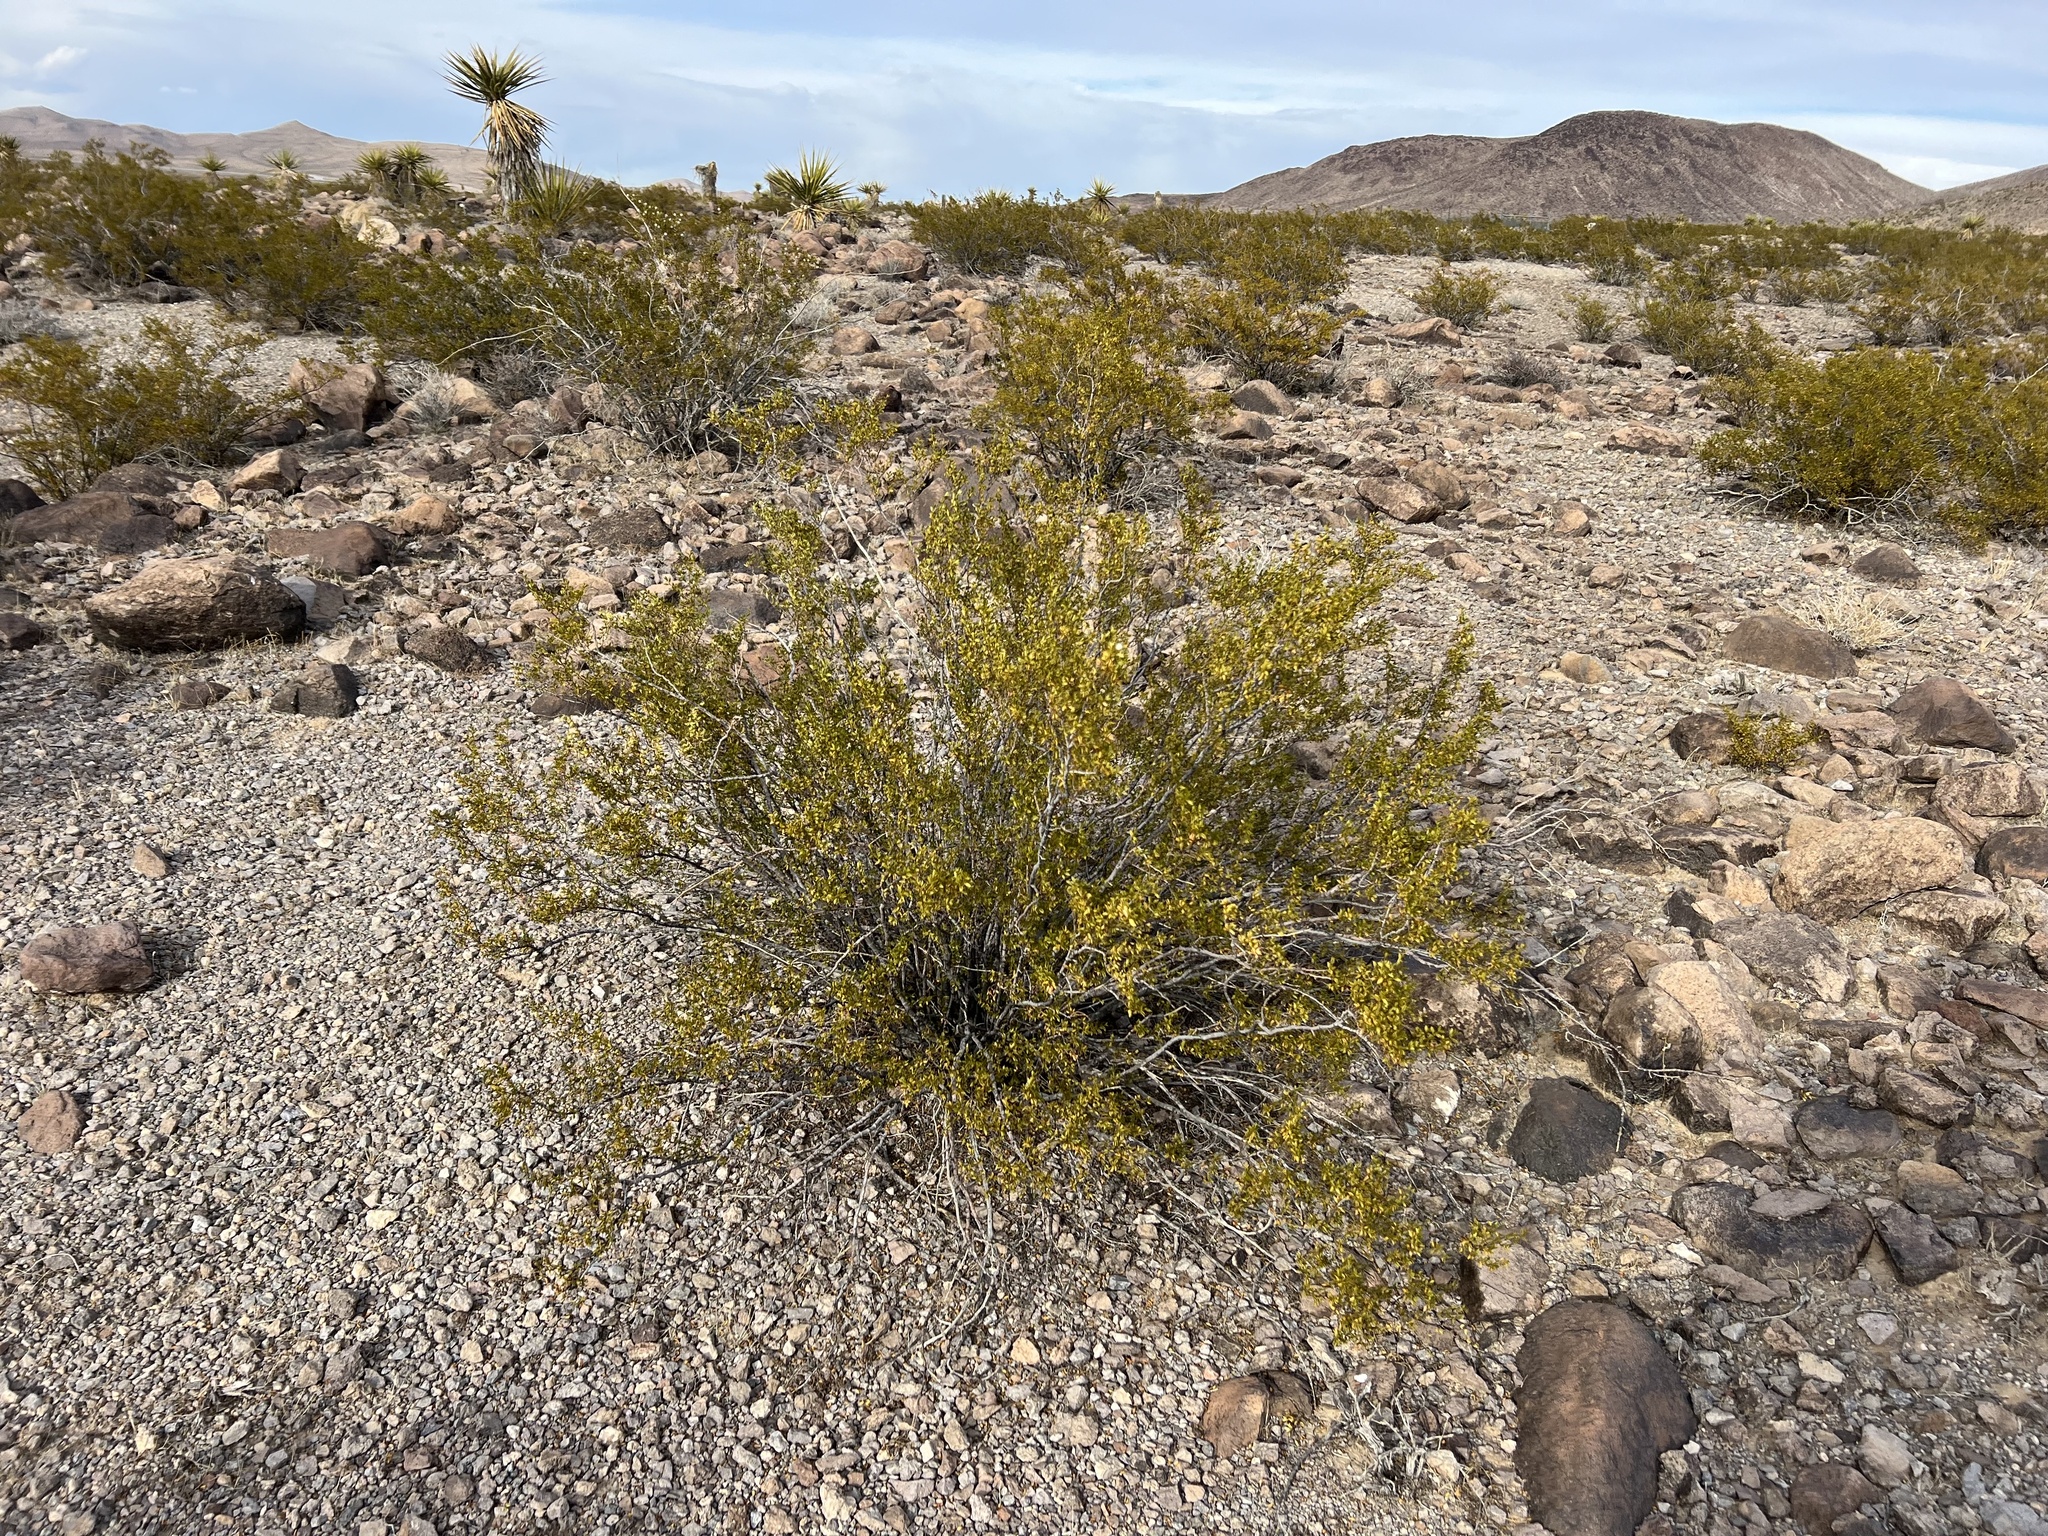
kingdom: Plantae
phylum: Tracheophyta
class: Magnoliopsida
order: Zygophyllales
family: Zygophyllaceae
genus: Larrea
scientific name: Larrea tridentata
